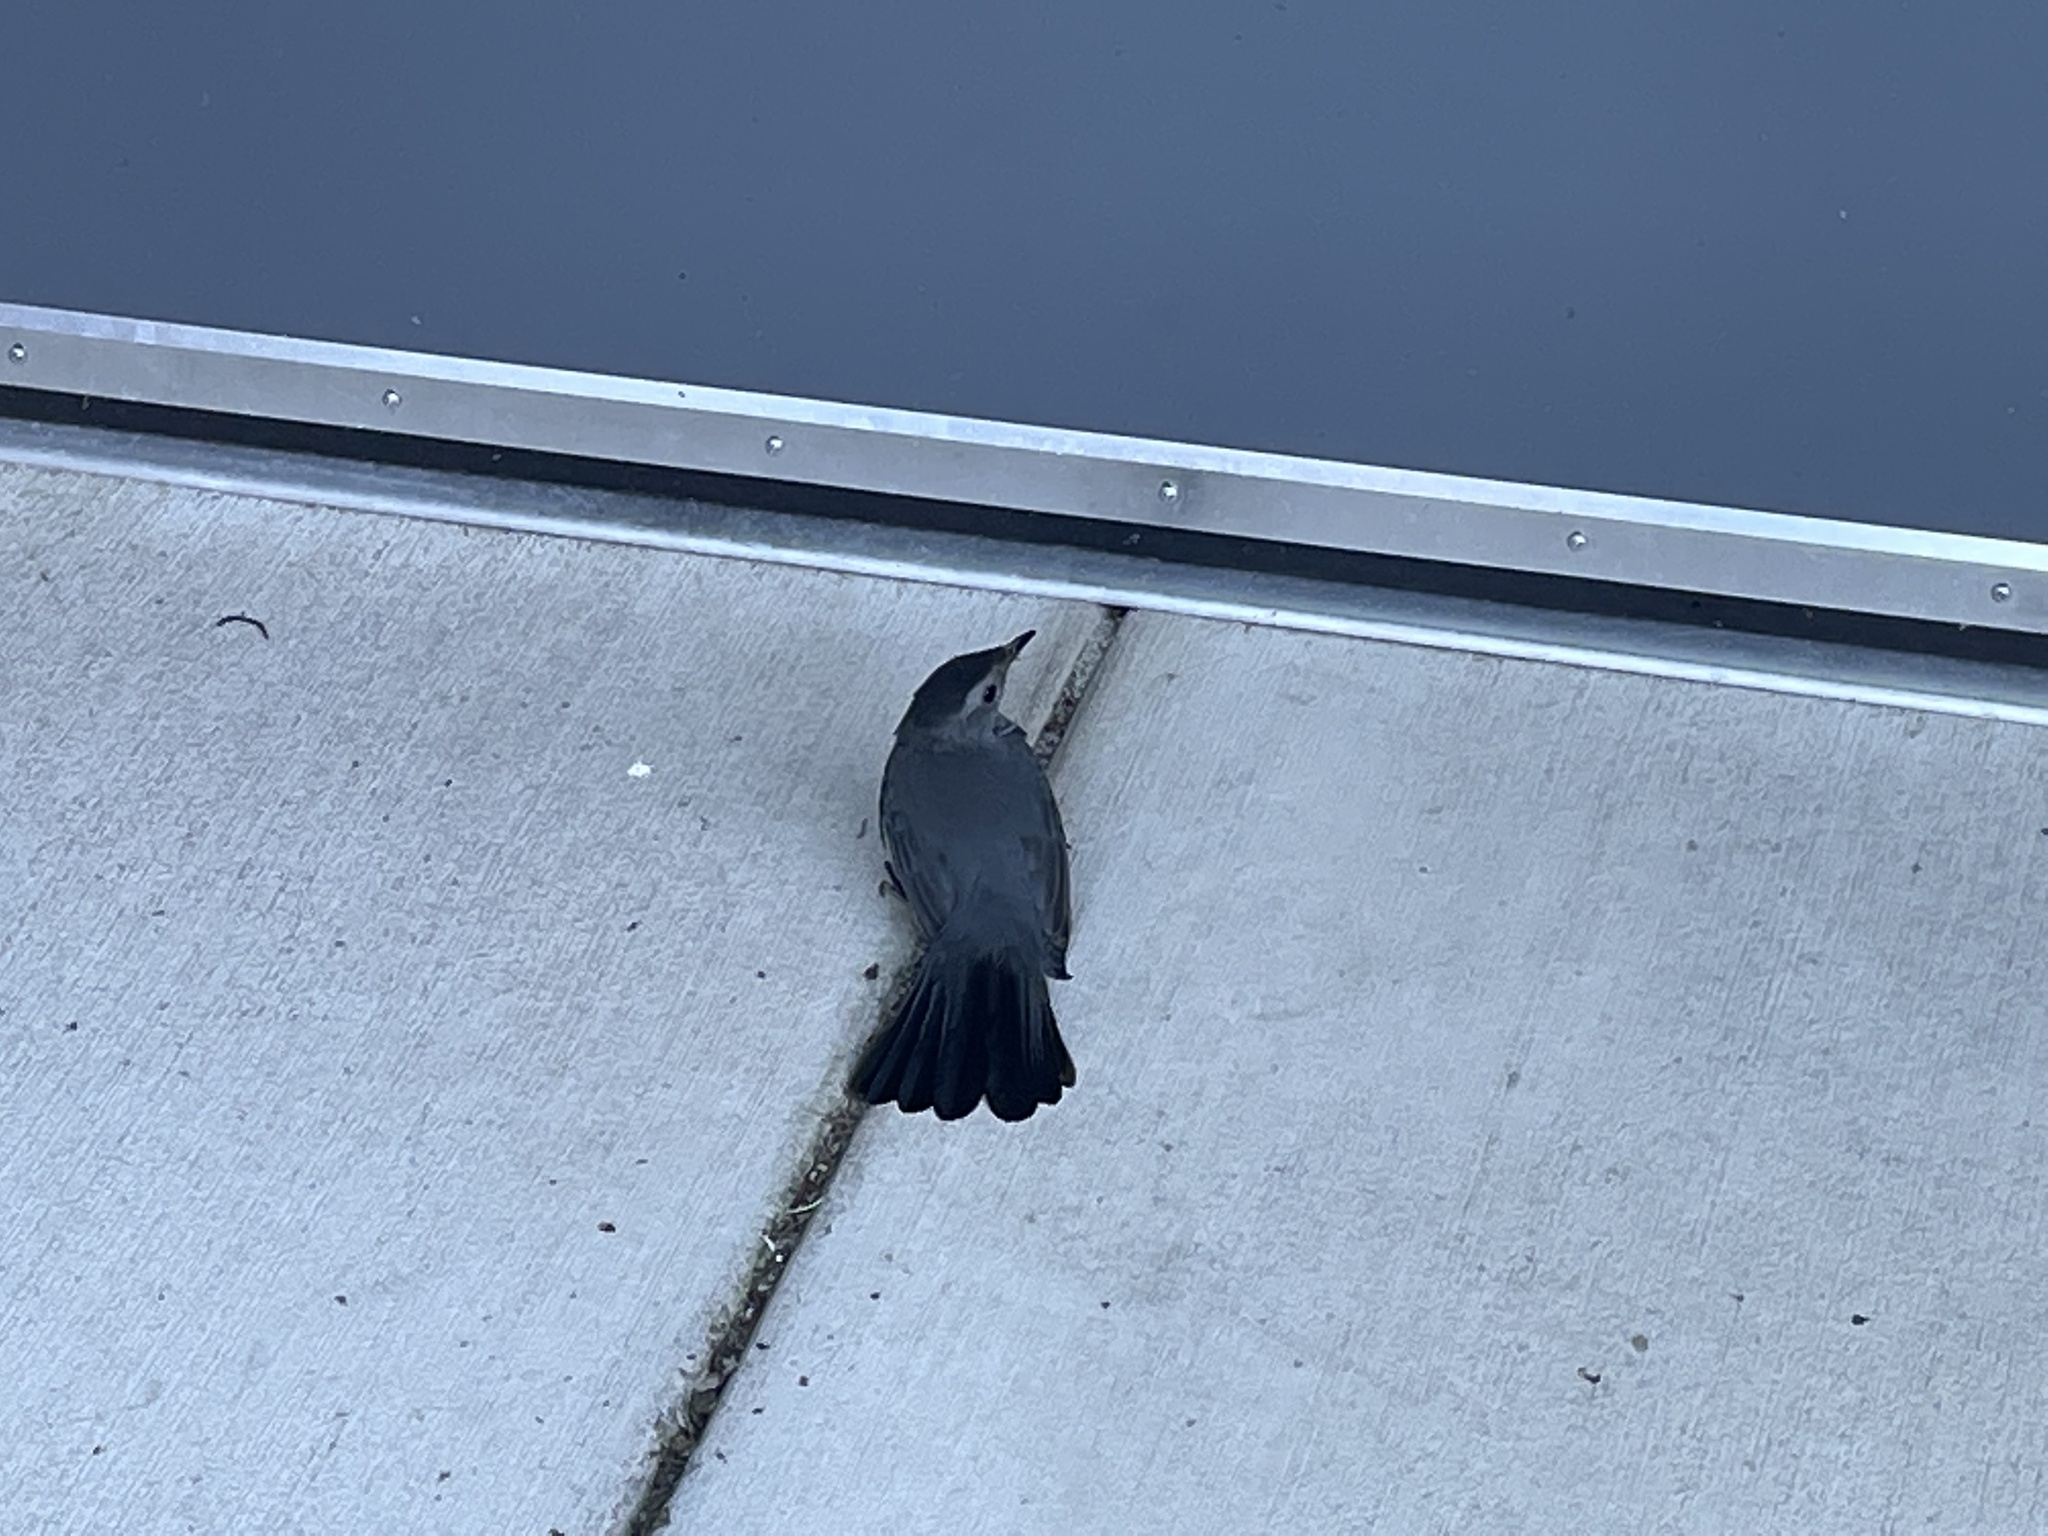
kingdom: Animalia
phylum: Chordata
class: Aves
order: Passeriformes
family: Mimidae
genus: Dumetella
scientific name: Dumetella carolinensis
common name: Gray catbird
